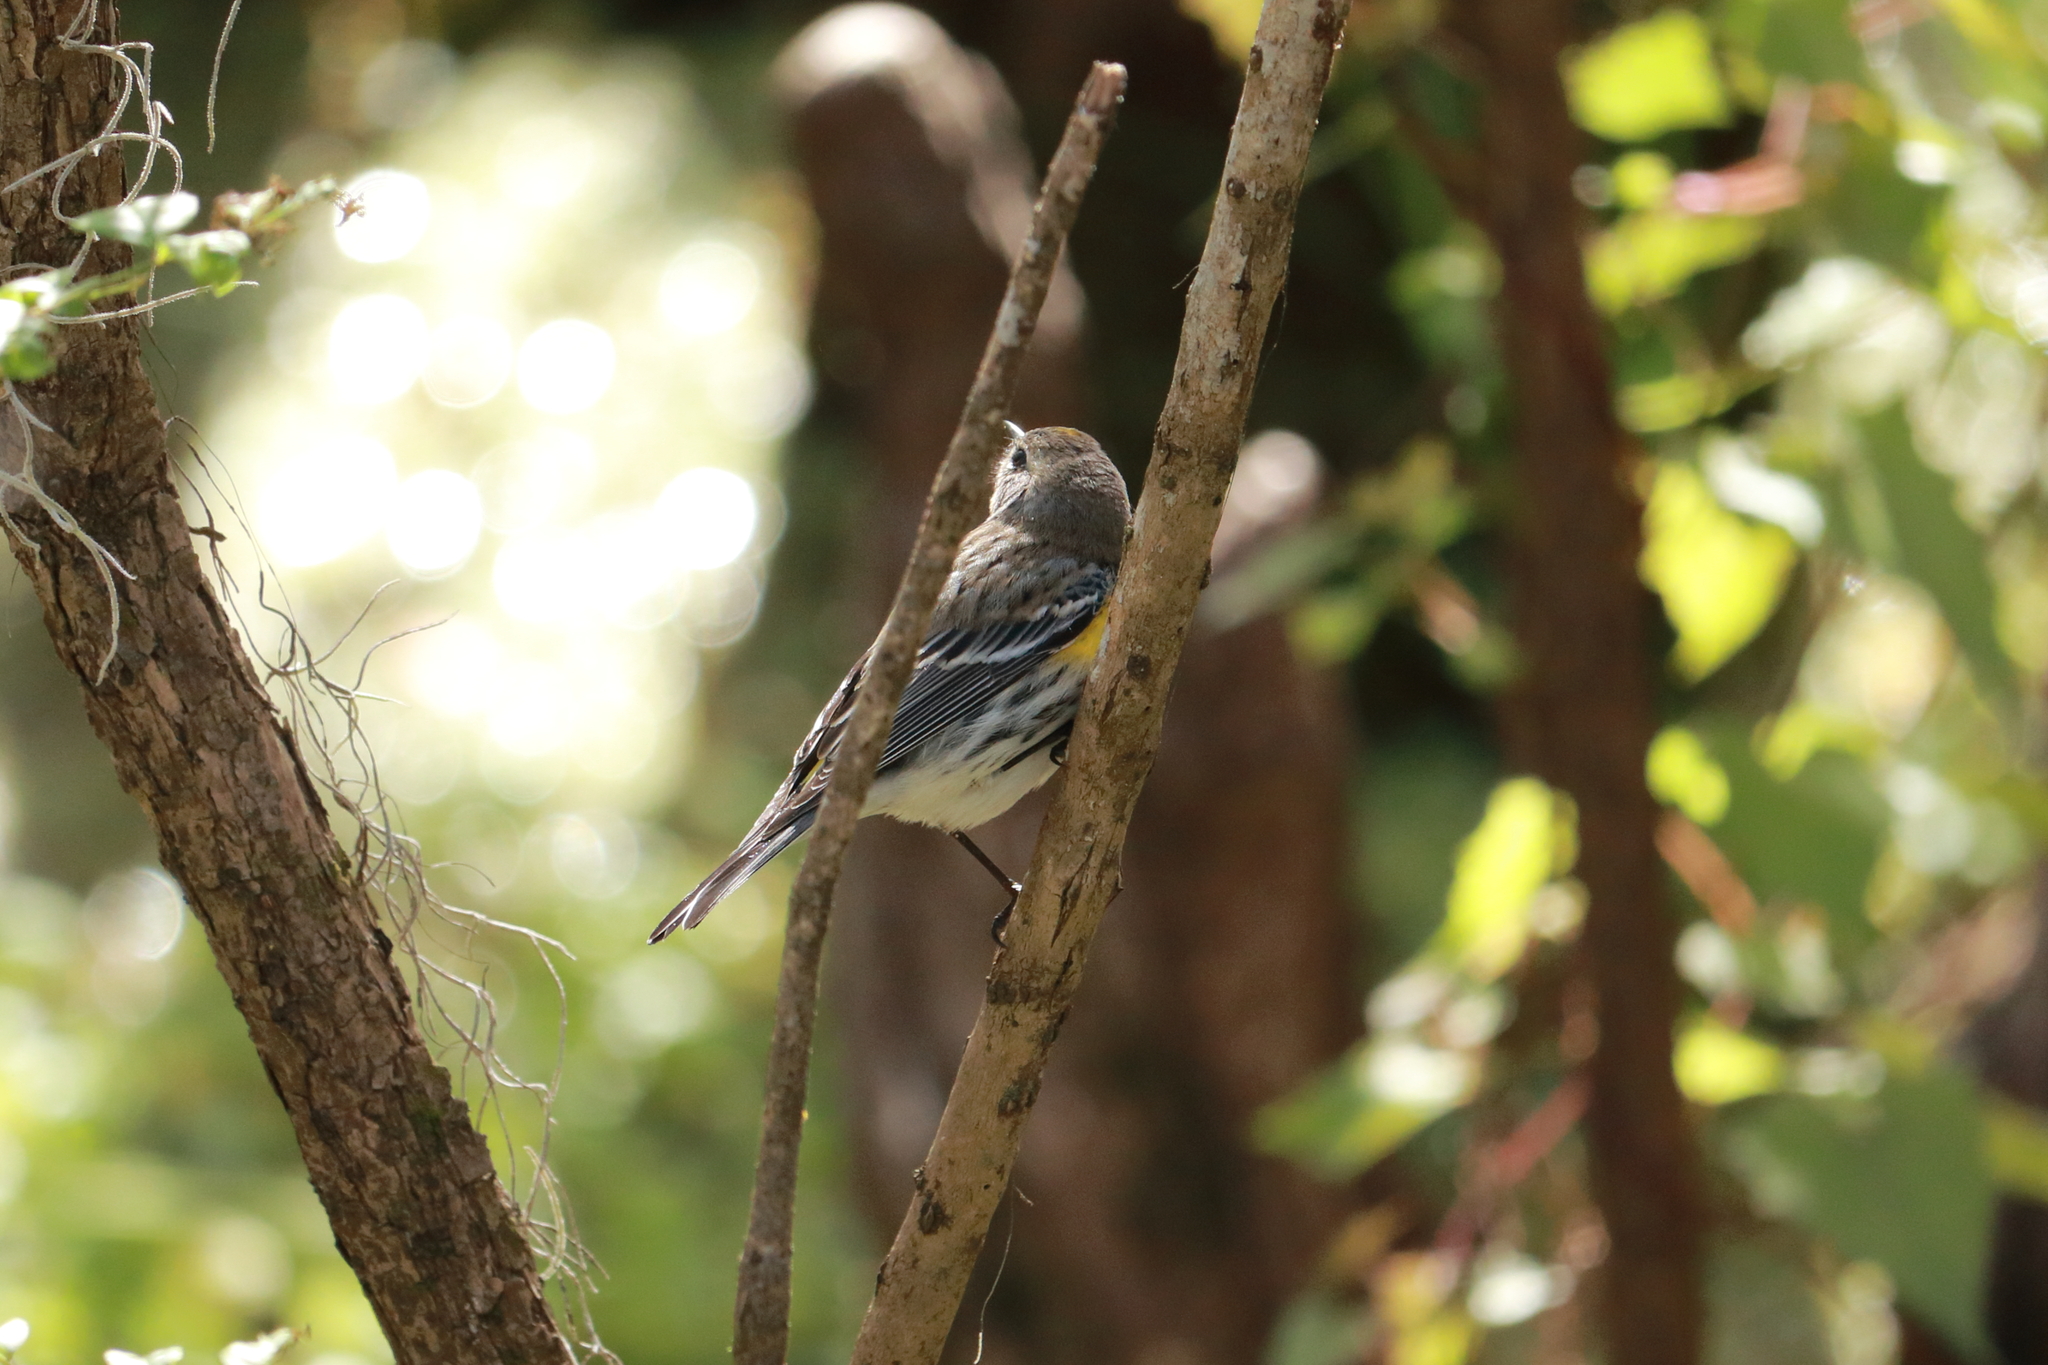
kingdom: Animalia
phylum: Chordata
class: Aves
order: Passeriformes
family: Parulidae
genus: Setophaga
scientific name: Setophaga coronata
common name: Myrtle warbler
